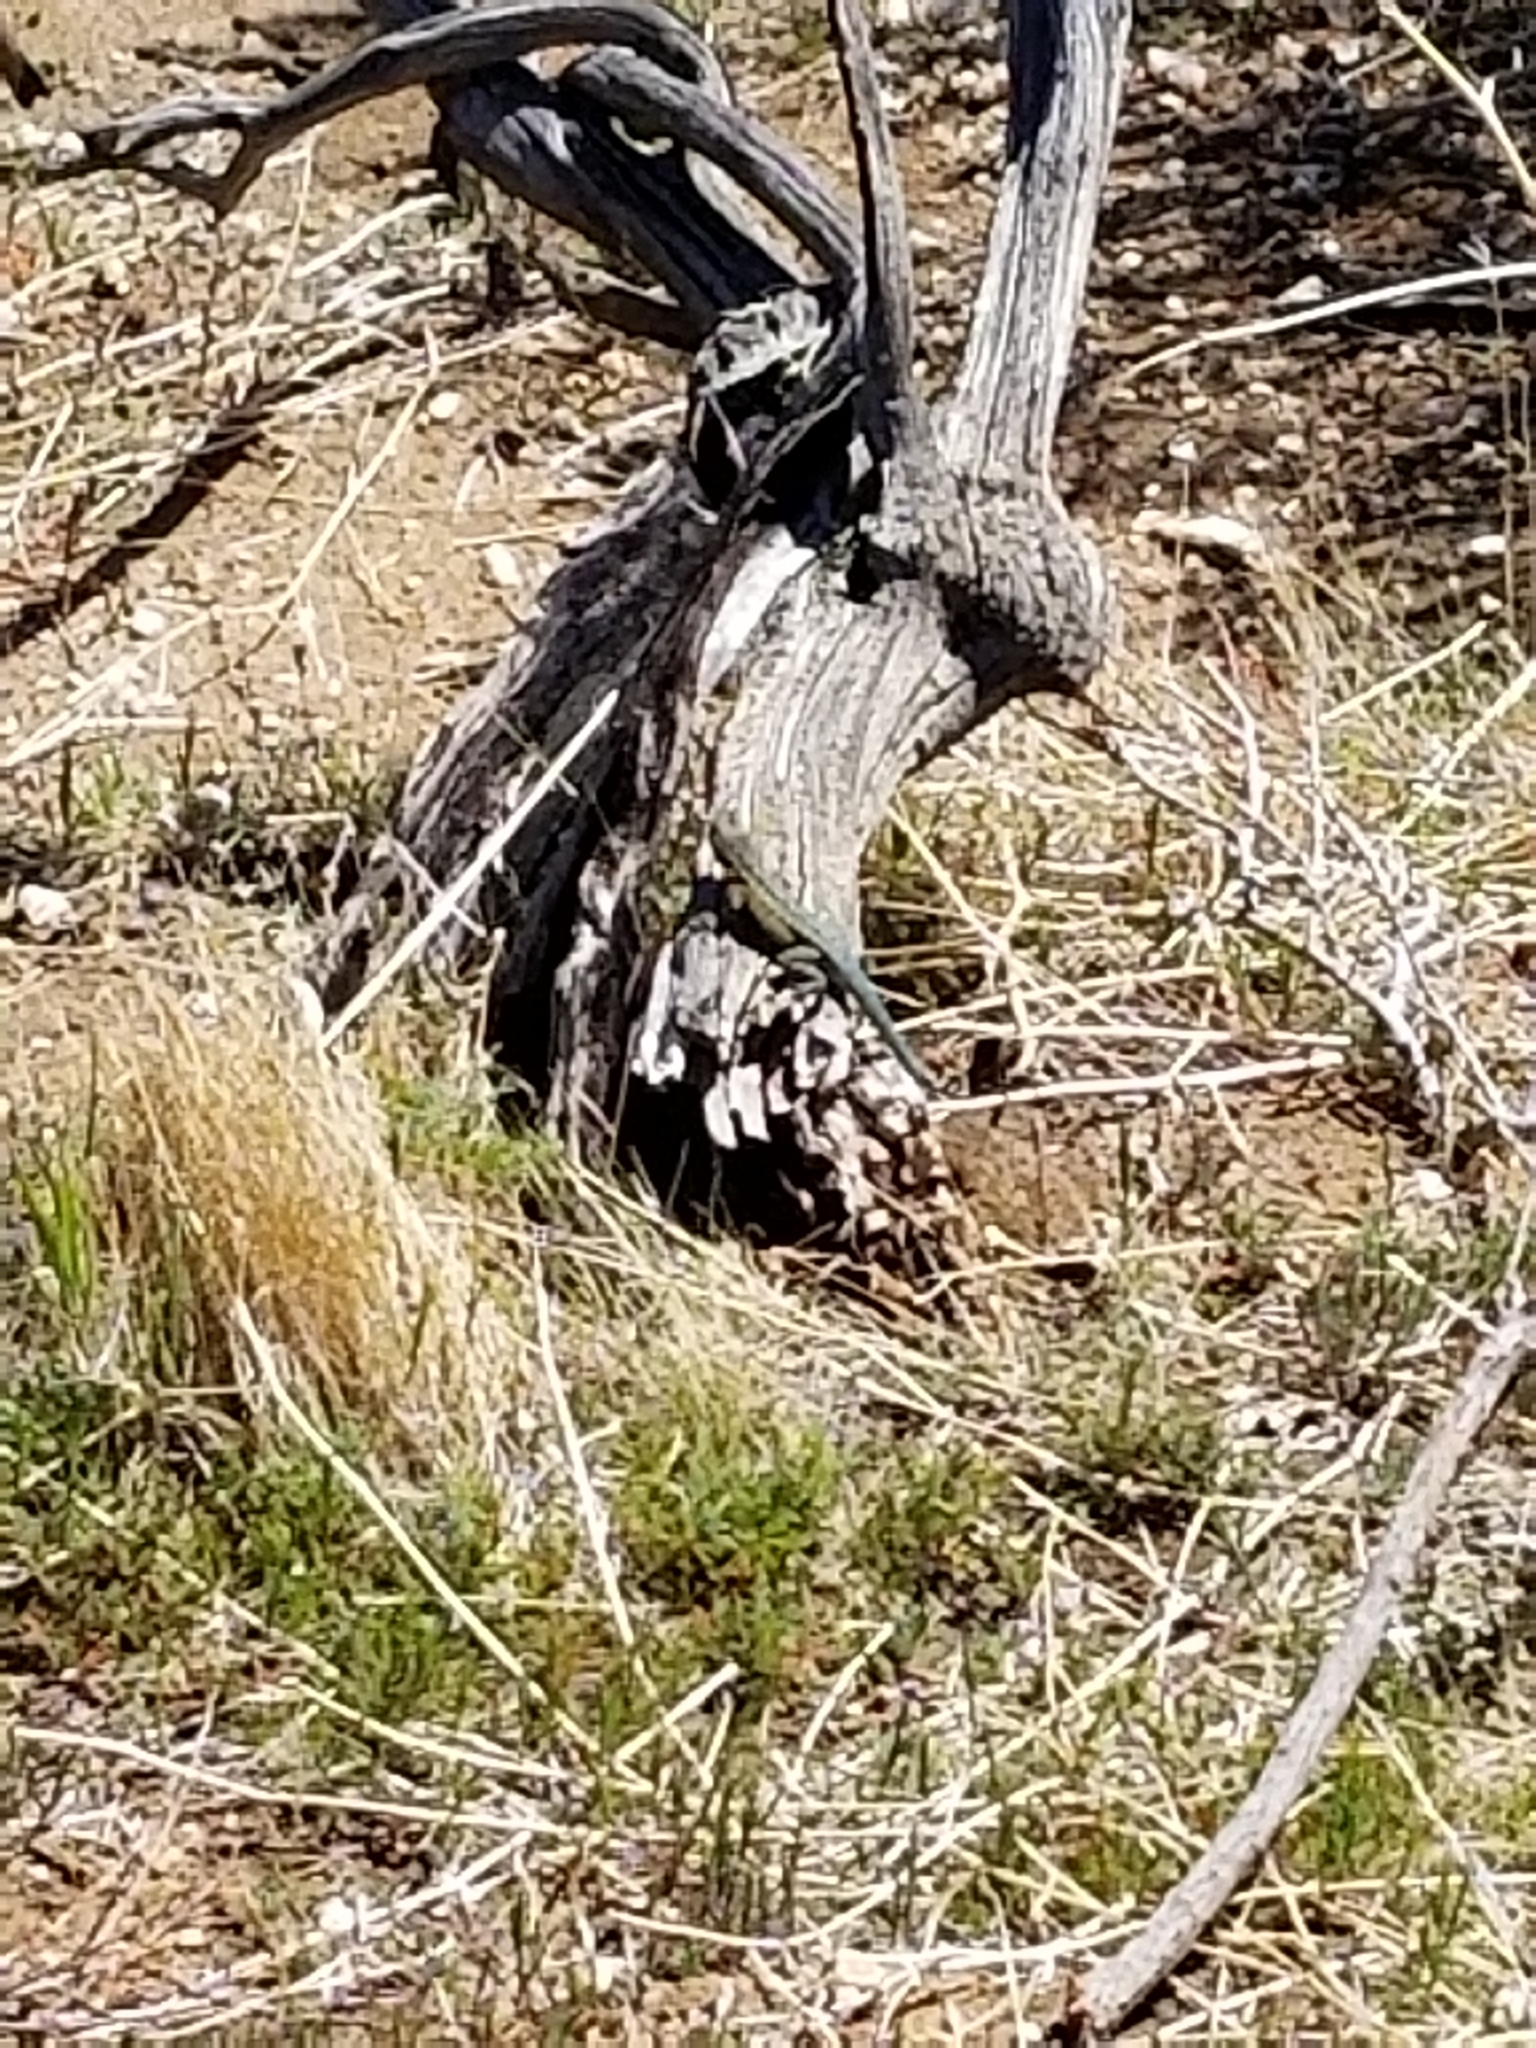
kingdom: Animalia
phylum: Chordata
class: Squamata
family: Phrynosomatidae
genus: Uta
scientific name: Uta stansburiana
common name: Side-blotched lizard
